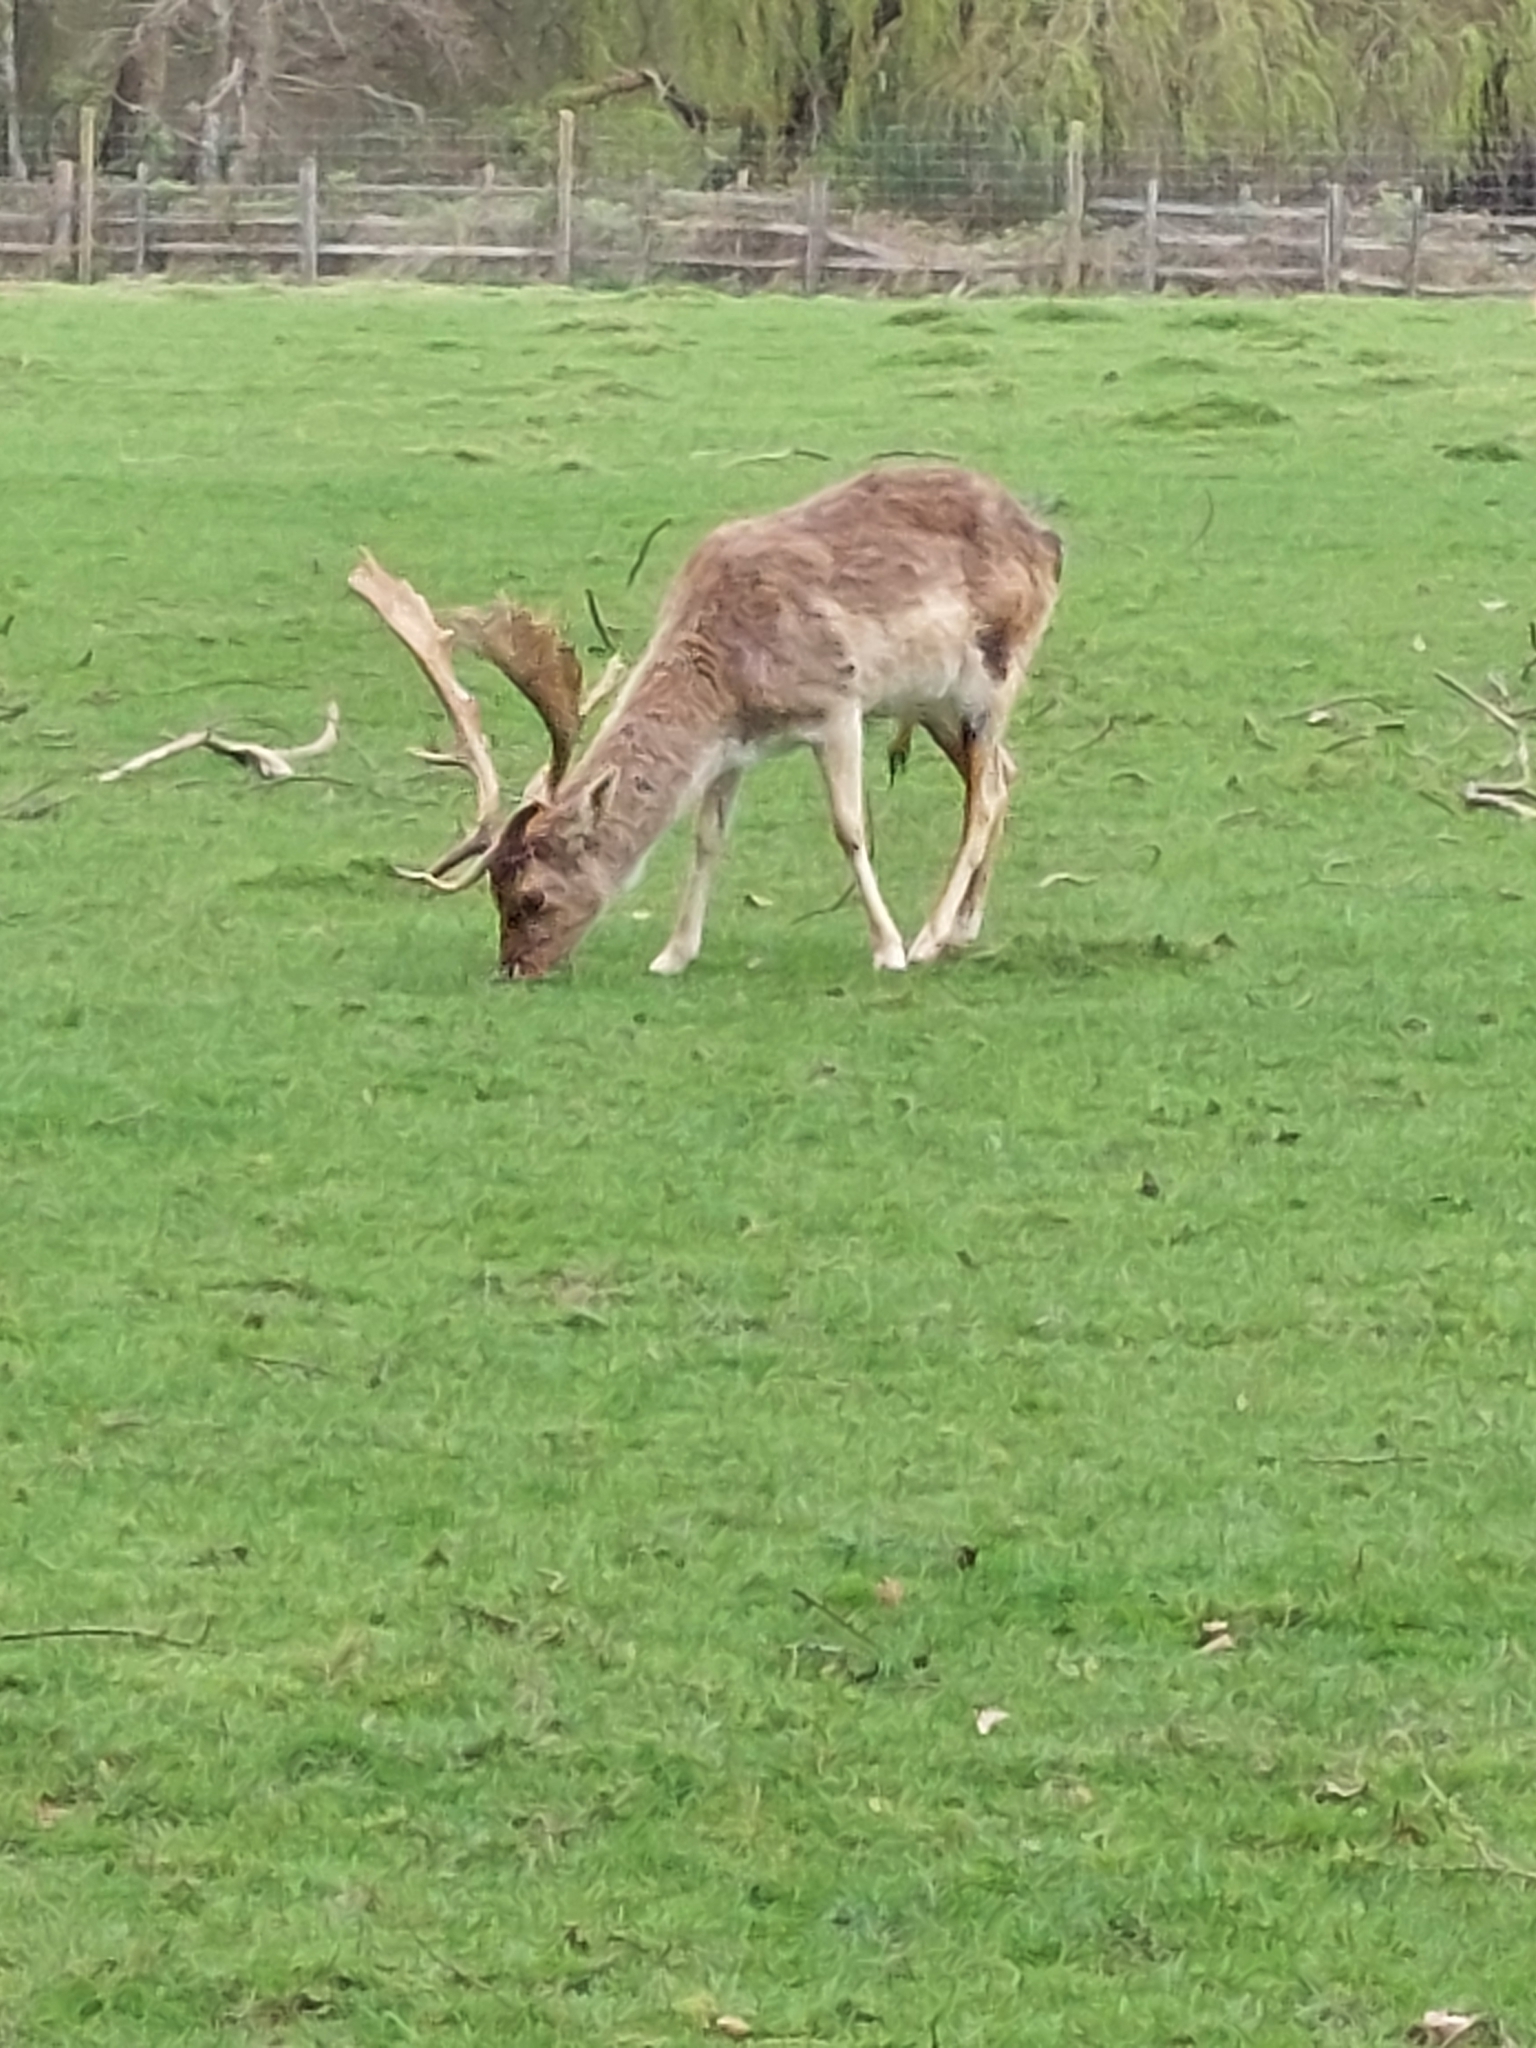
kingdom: Animalia
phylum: Chordata
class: Mammalia
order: Artiodactyla
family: Cervidae
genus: Dama
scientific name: Dama dama
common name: Fallow deer
